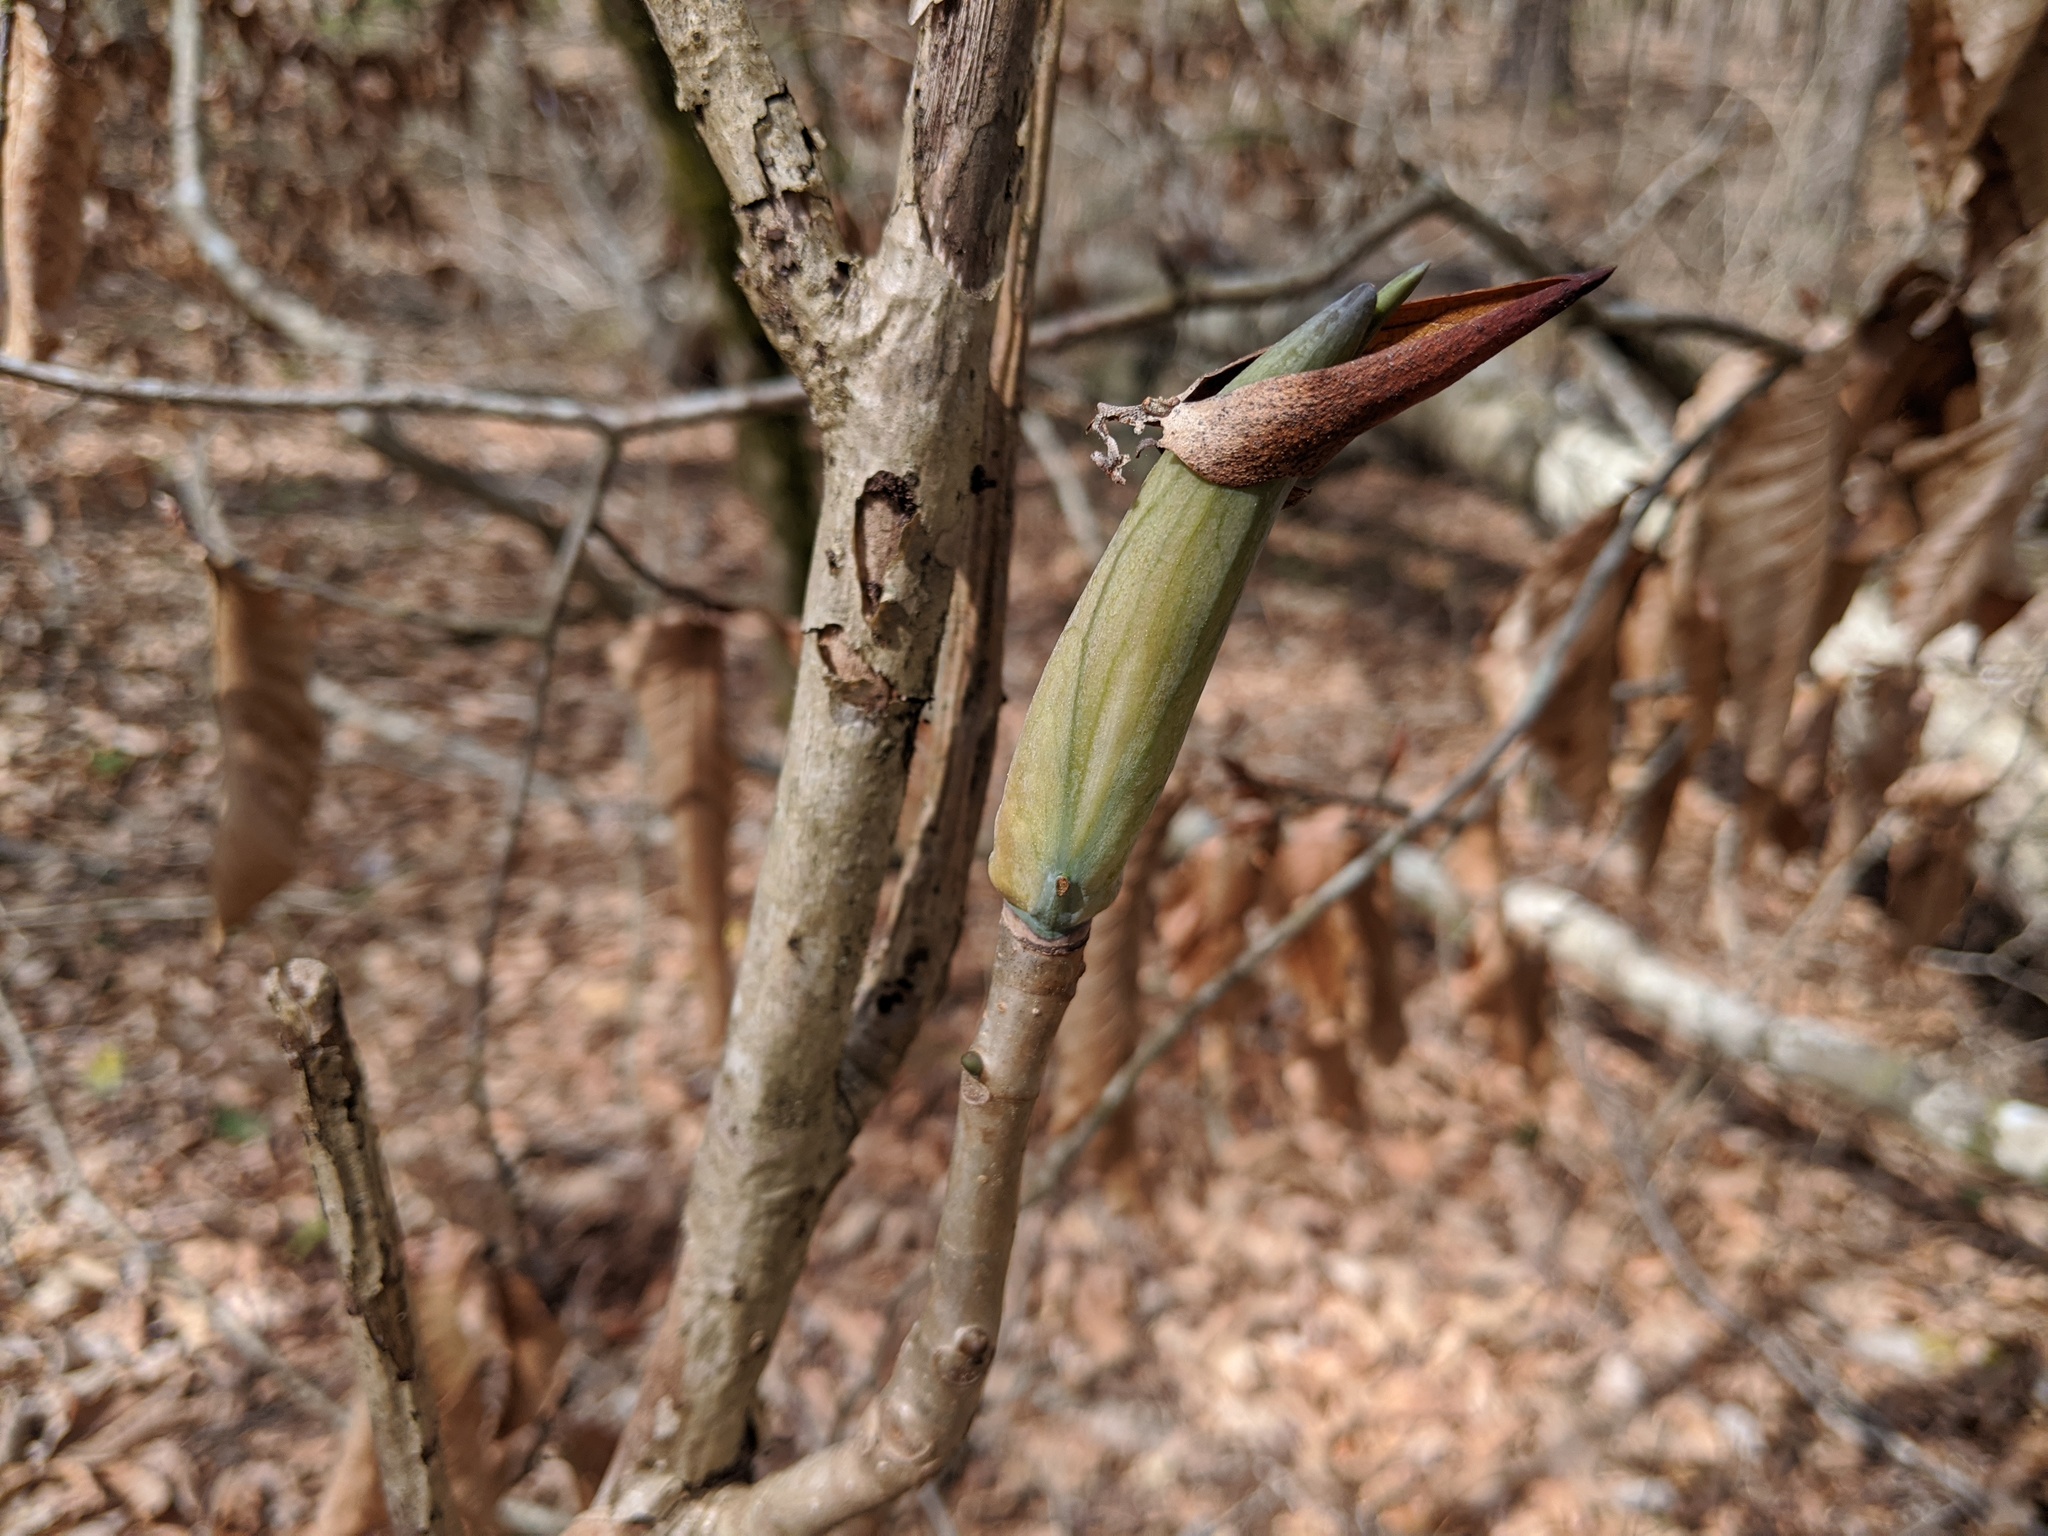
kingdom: Plantae
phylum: Tracheophyta
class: Magnoliopsida
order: Magnoliales
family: Magnoliaceae
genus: Magnolia
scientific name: Magnolia tripetala
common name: Umbrella magnolia
